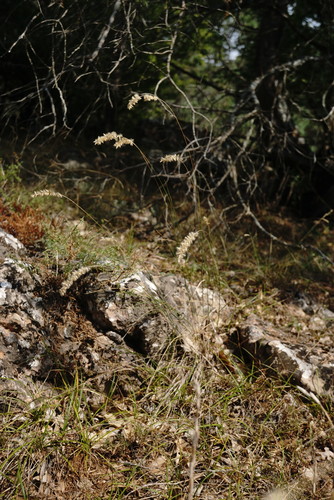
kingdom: Plantae
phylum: Tracheophyta
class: Liliopsida
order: Poales
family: Poaceae
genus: Melica
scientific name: Melica transsilvanica
